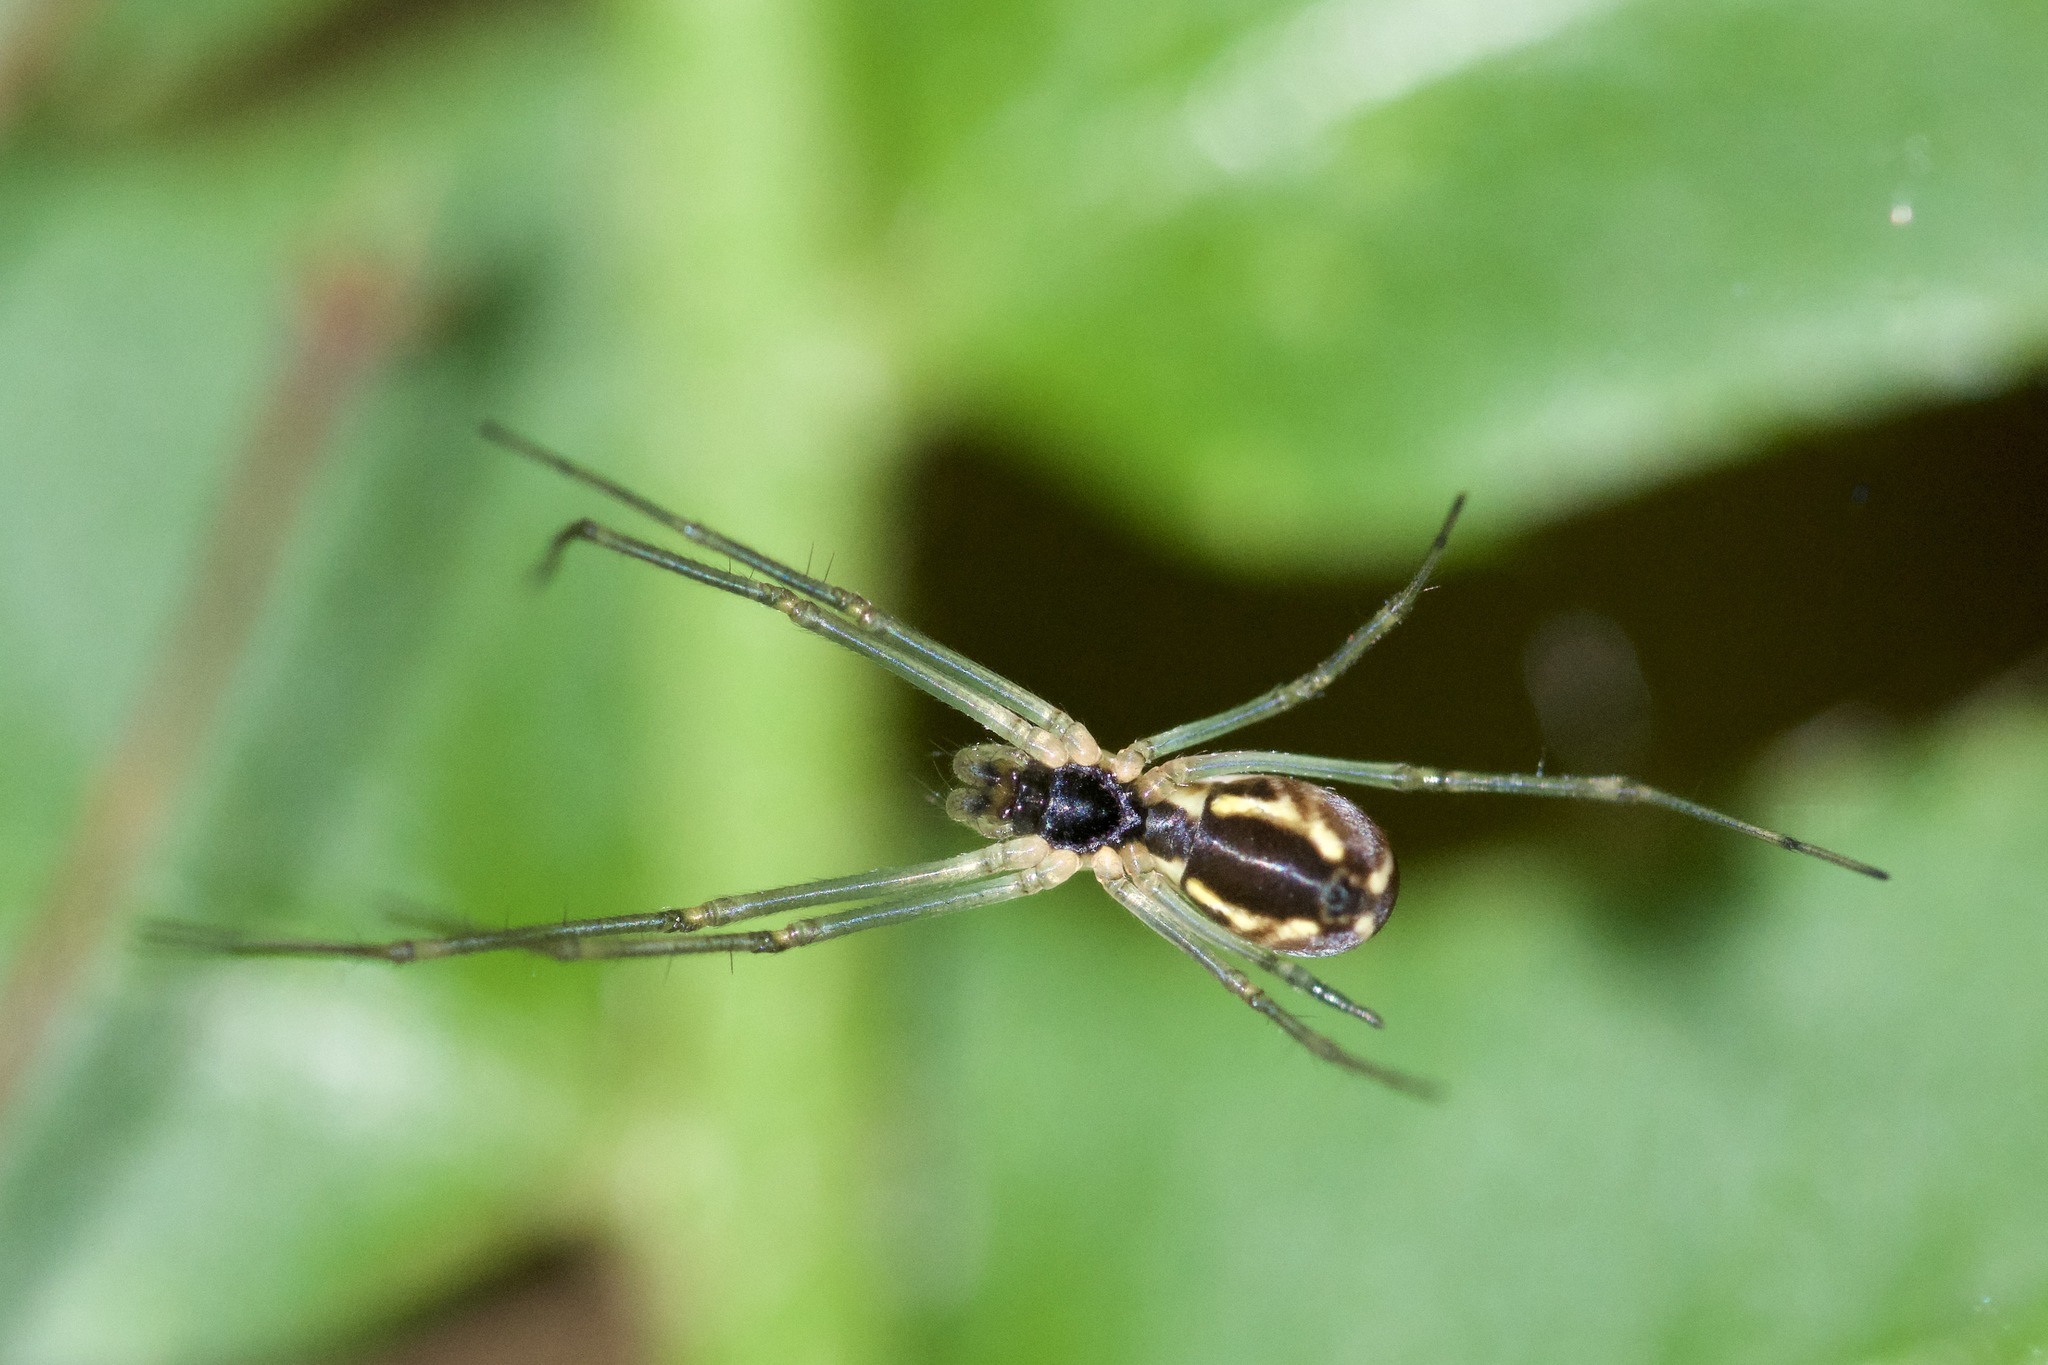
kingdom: Animalia
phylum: Arthropoda
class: Arachnida
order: Araneae
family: Linyphiidae
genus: Neriene
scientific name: Neriene radiata
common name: Filmy dome spider
